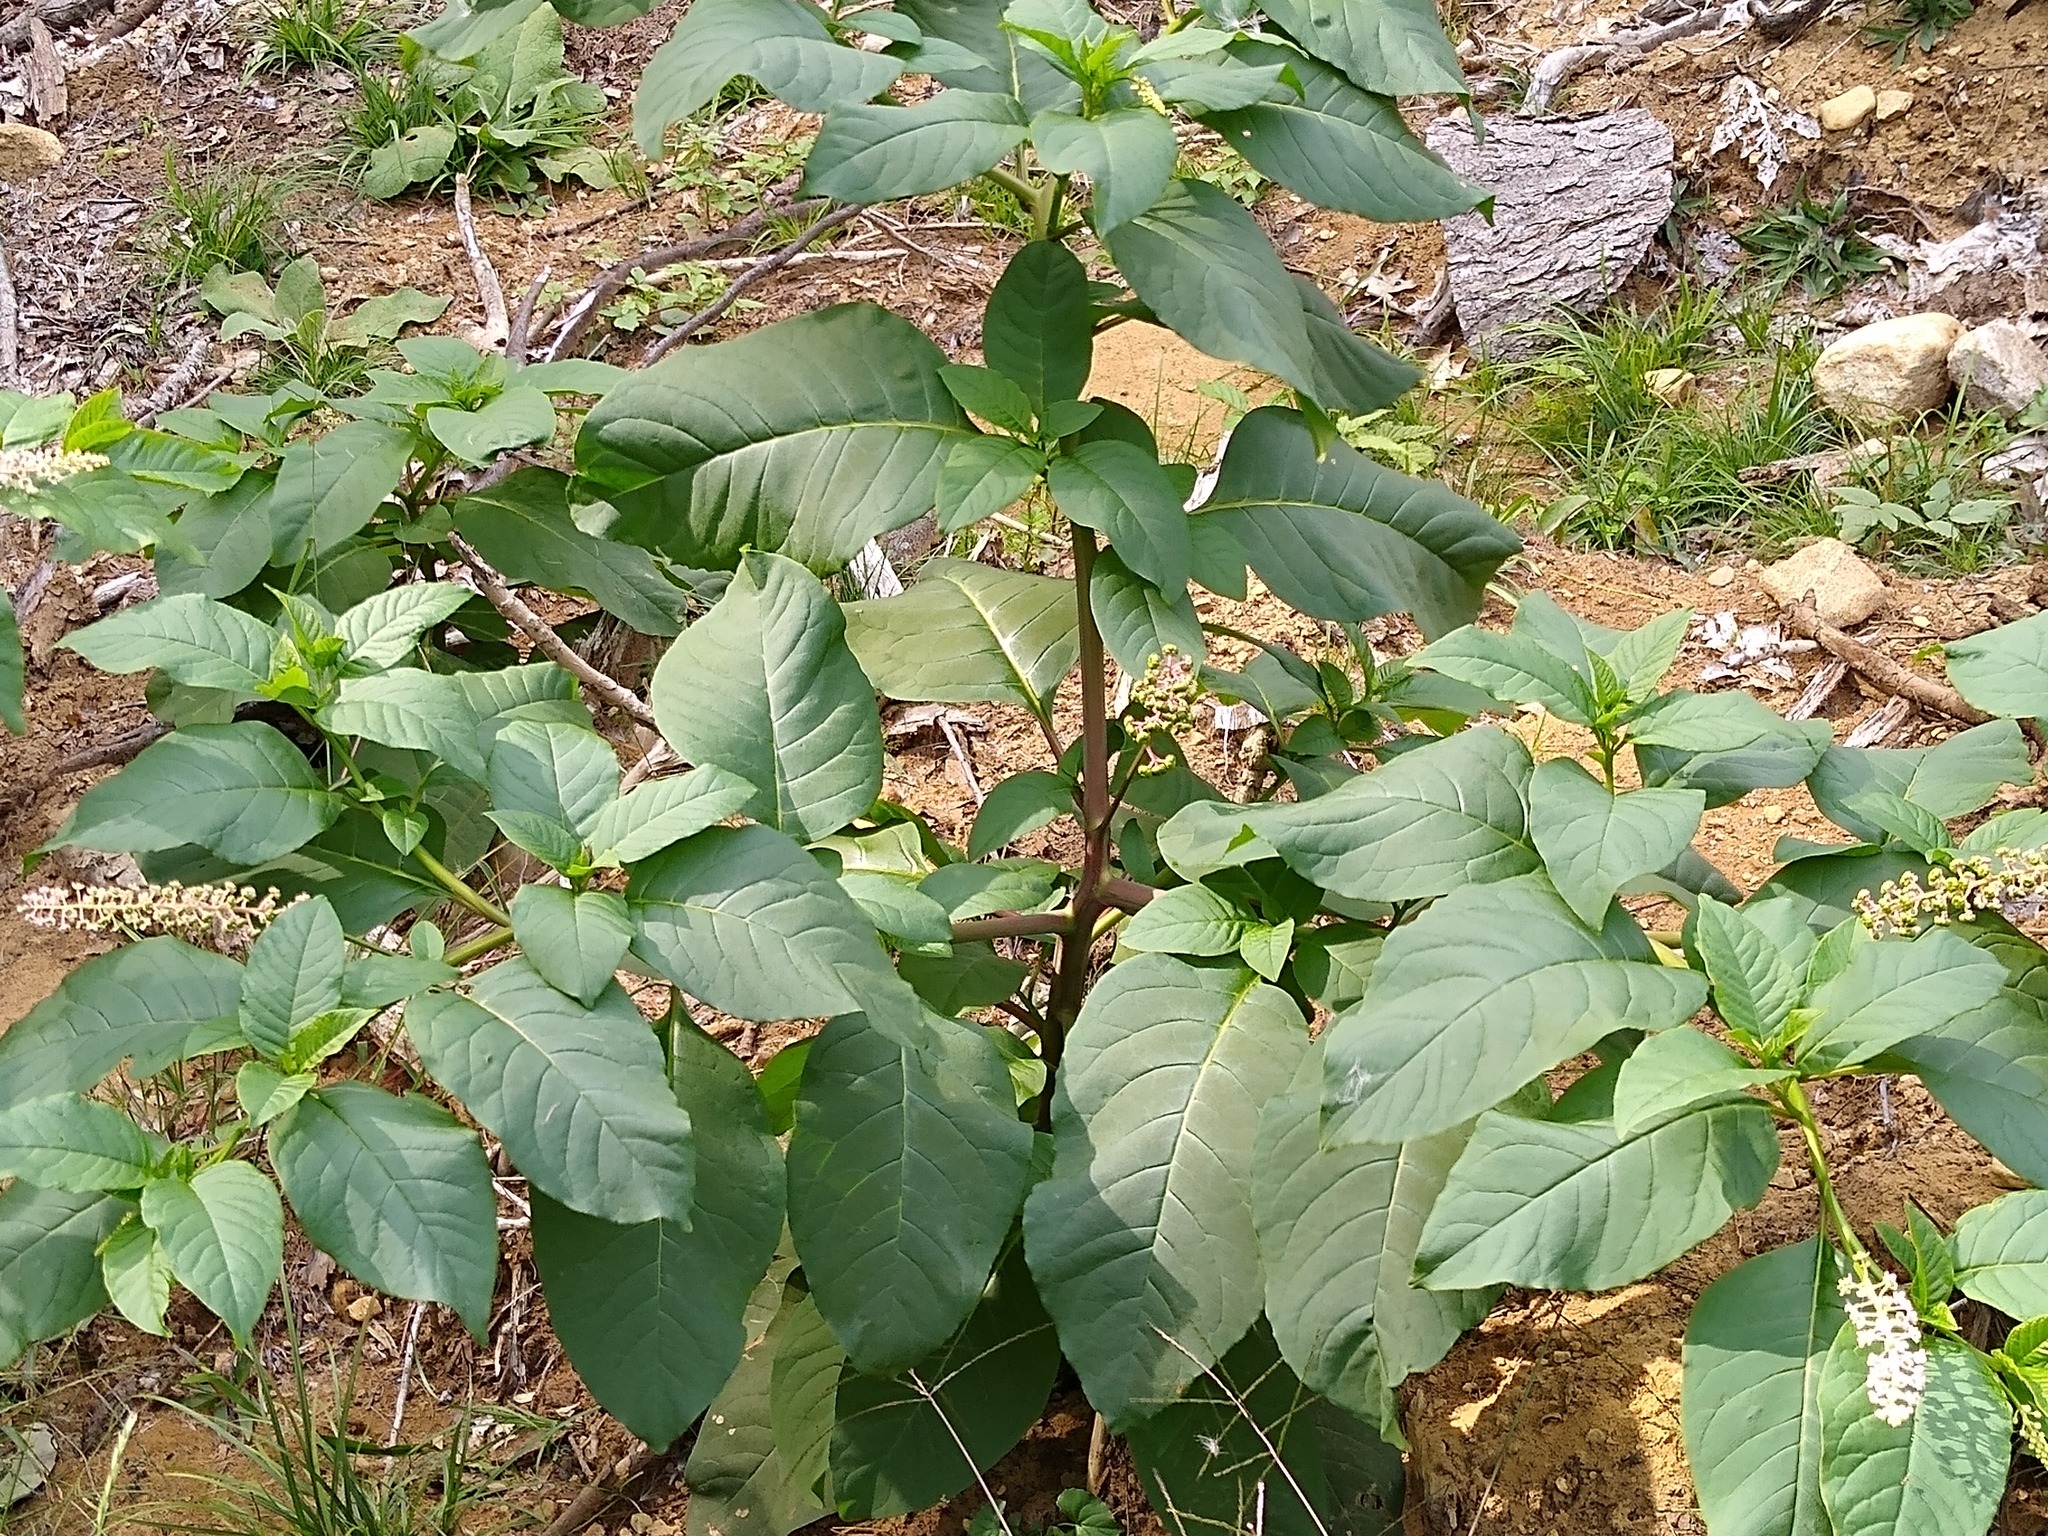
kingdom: Plantae
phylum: Tracheophyta
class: Magnoliopsida
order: Caryophyllales
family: Phytolaccaceae
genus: Phytolacca
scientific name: Phytolacca americana
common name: American pokeweed
